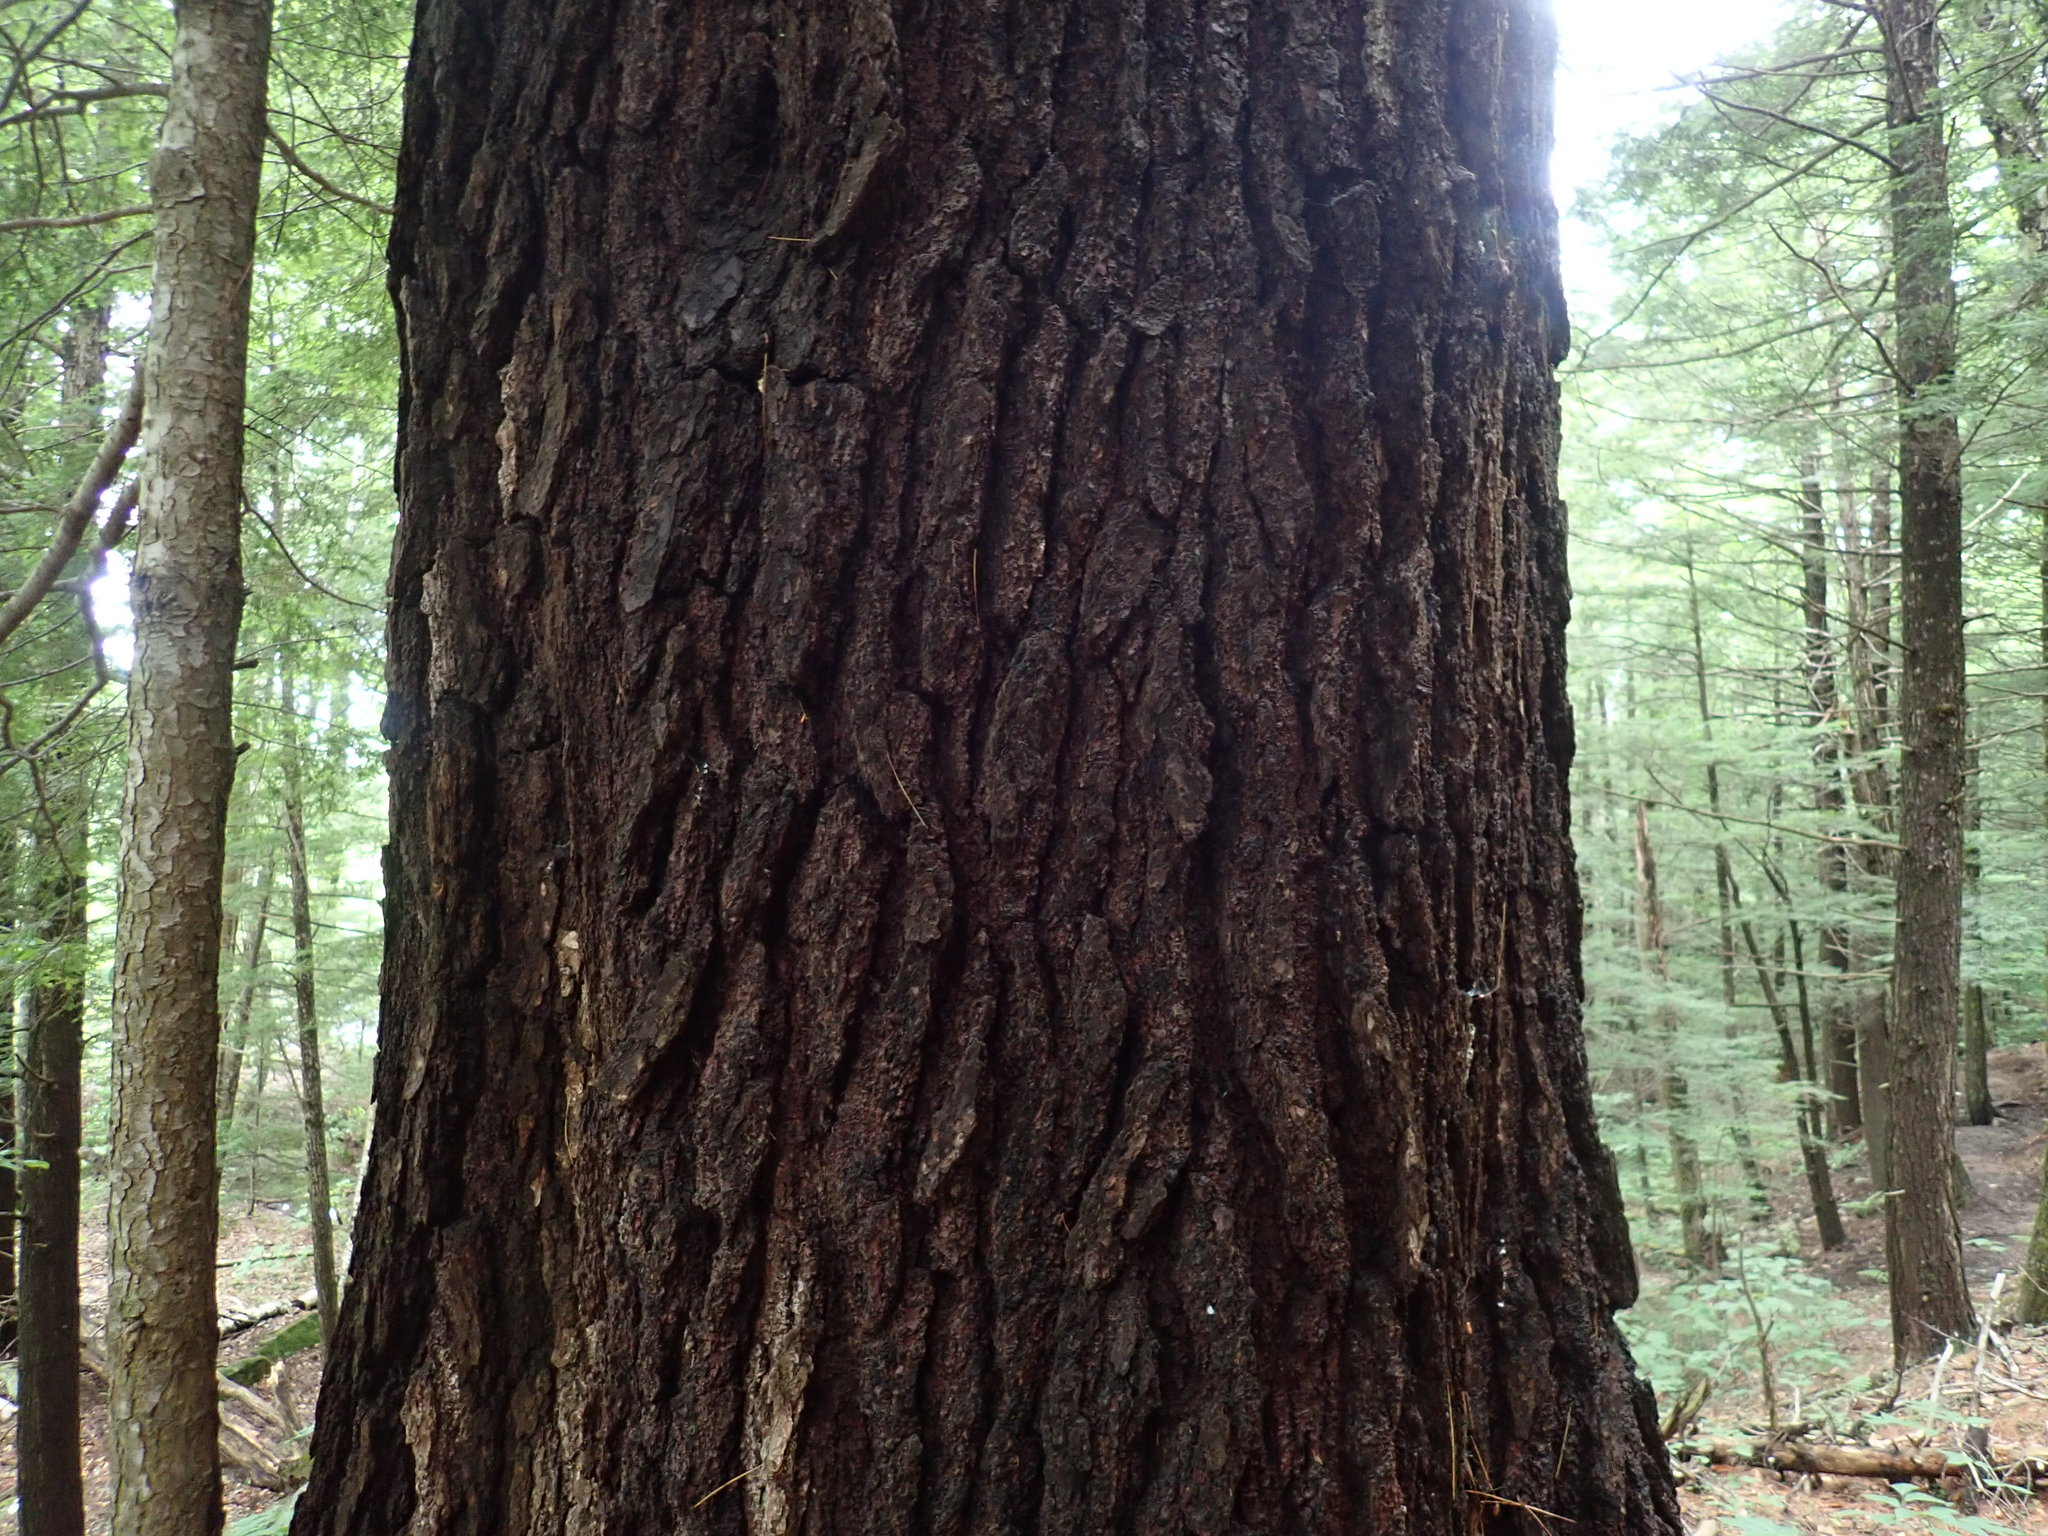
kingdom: Plantae
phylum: Tracheophyta
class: Pinopsida
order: Pinales
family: Pinaceae
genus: Pinus
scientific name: Pinus strobus
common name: Weymouth pine
